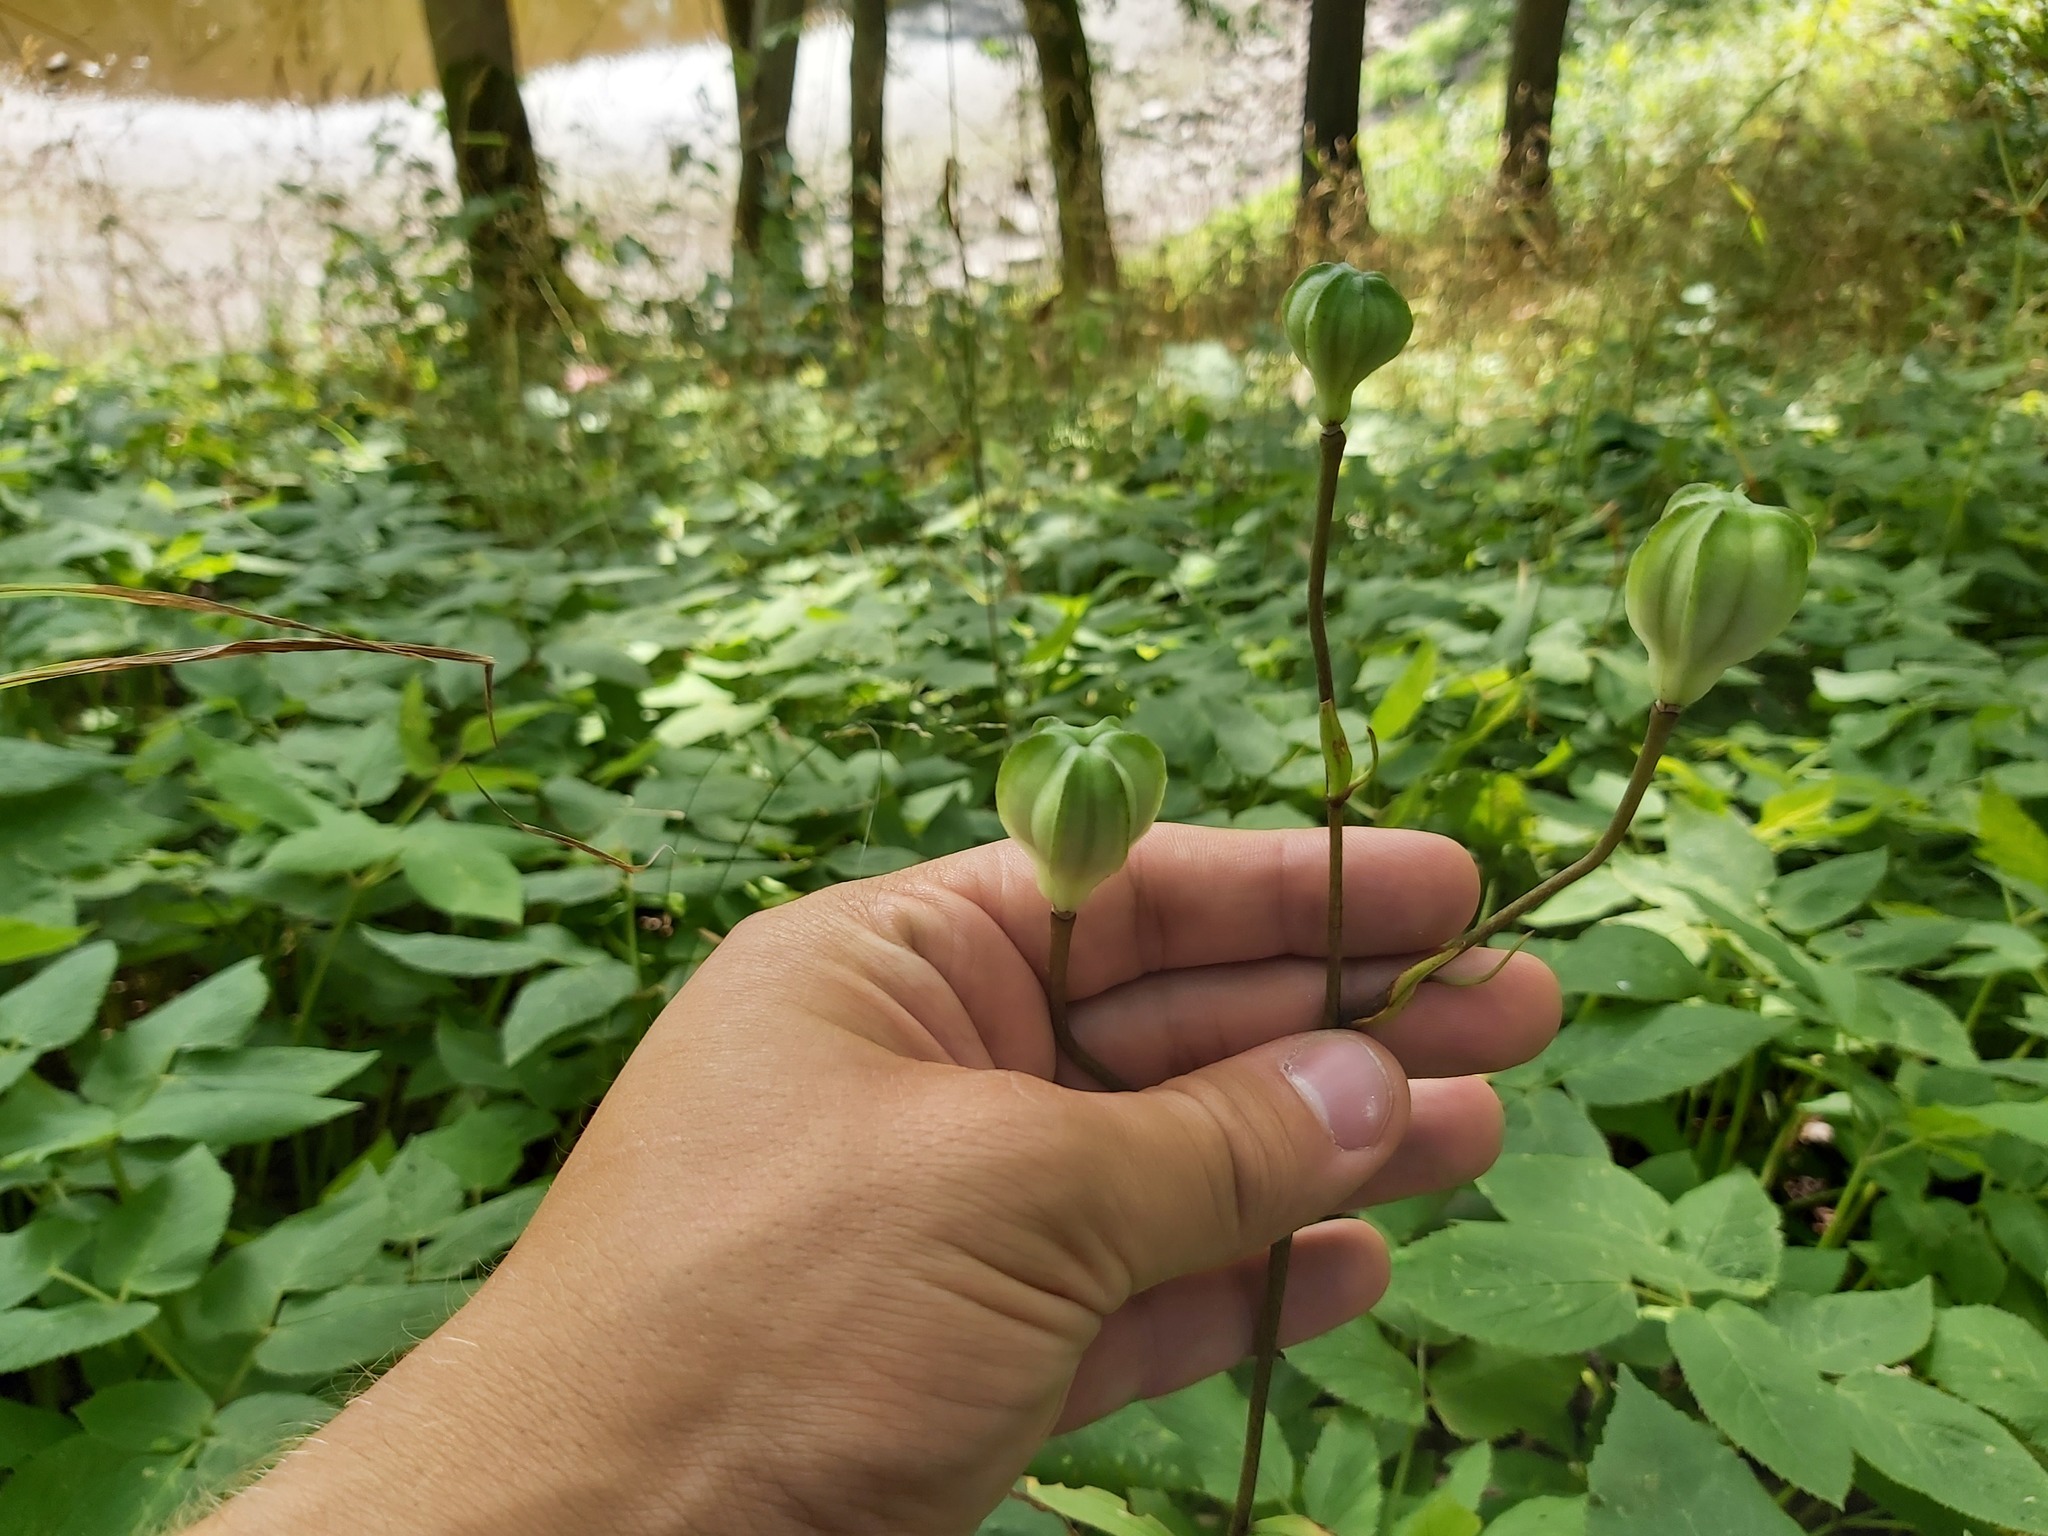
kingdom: Plantae
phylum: Tracheophyta
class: Liliopsida
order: Liliales
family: Liliaceae
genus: Lilium
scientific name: Lilium martagon
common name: Martagon lily
